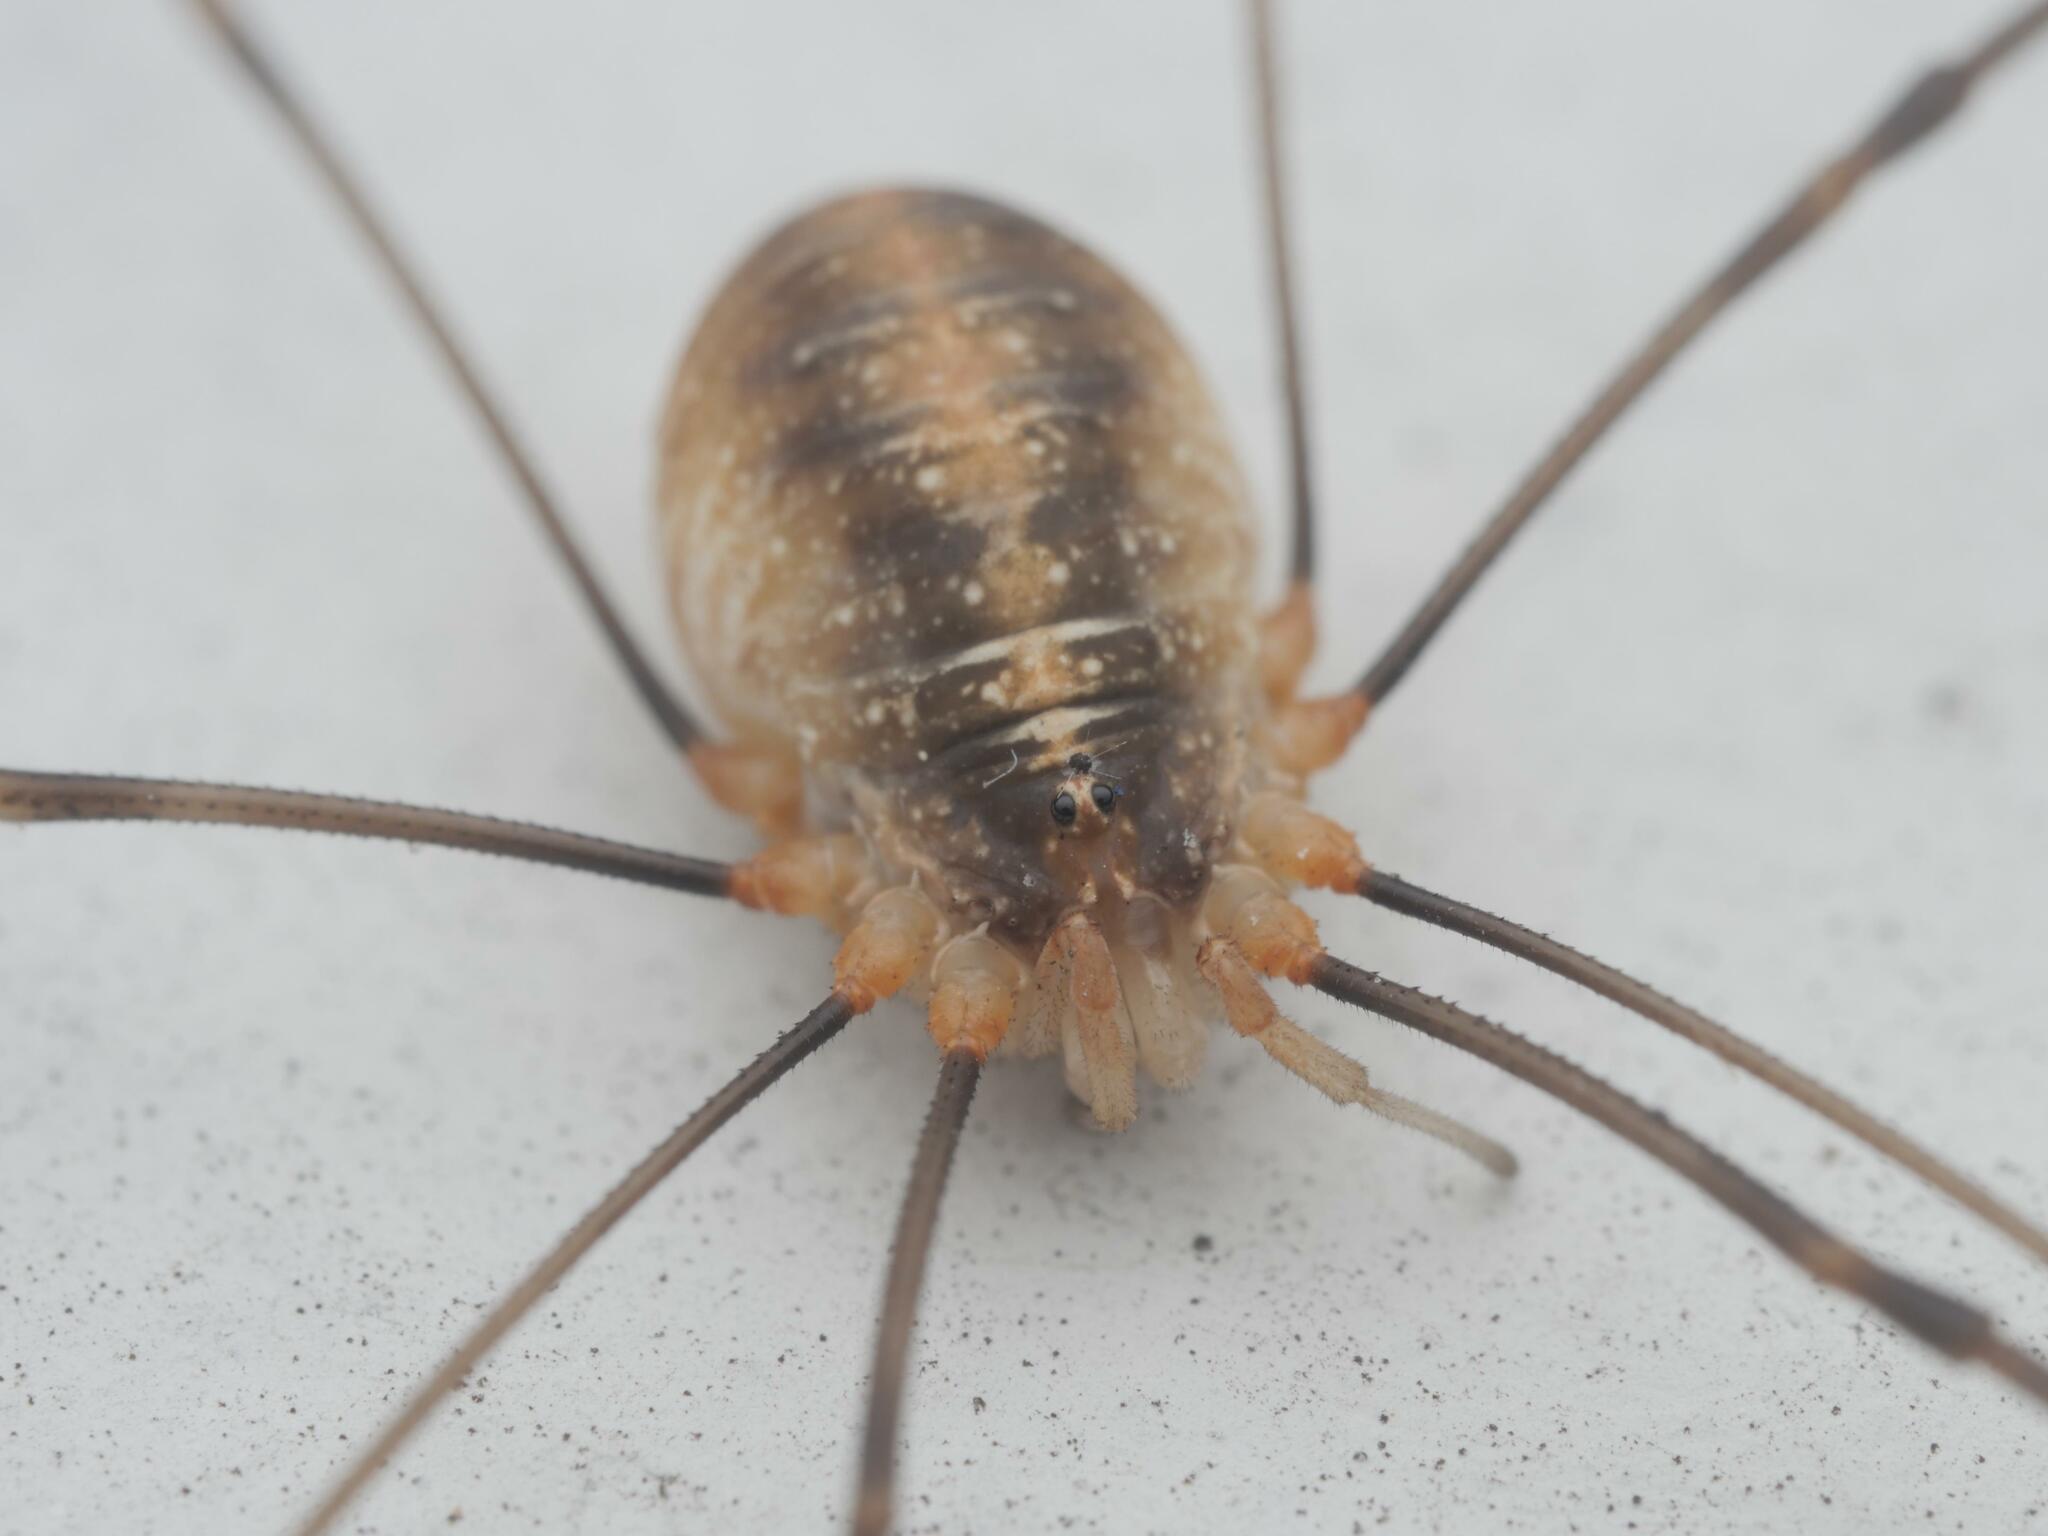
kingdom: Animalia
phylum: Arthropoda
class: Arachnida
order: Opiliones
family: Phalangiidae
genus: Opilio
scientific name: Opilio canestrinii
